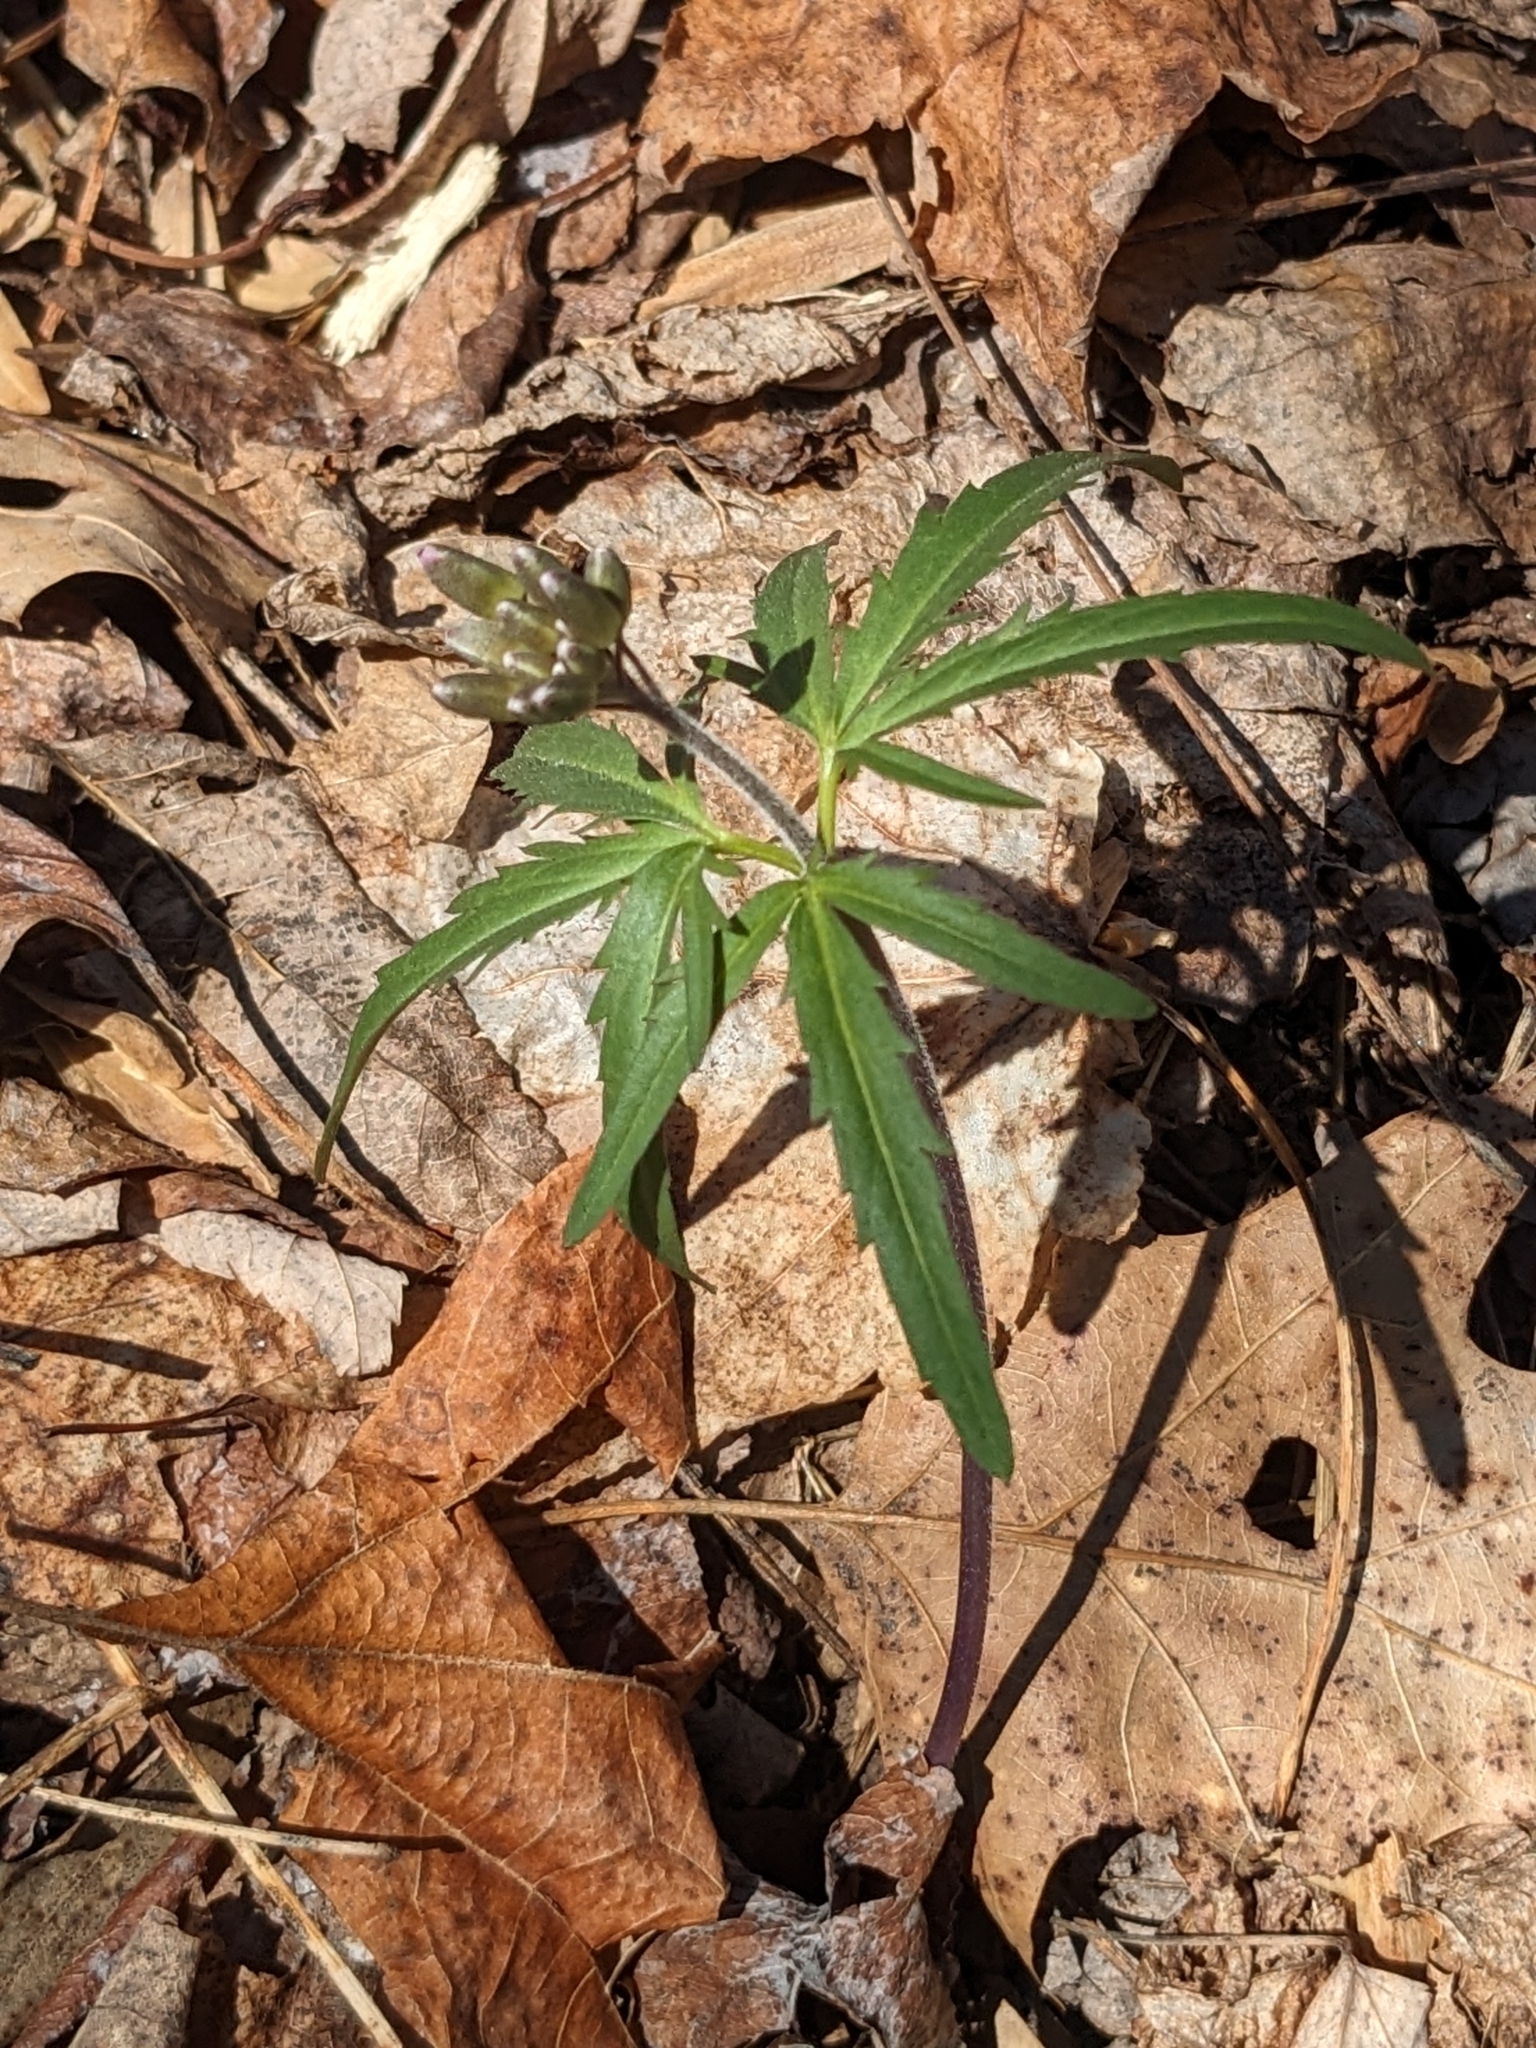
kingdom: Plantae
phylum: Tracheophyta
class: Magnoliopsida
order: Brassicales
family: Brassicaceae
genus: Cardamine
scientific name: Cardamine concatenata
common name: Cut-leaf toothcup
